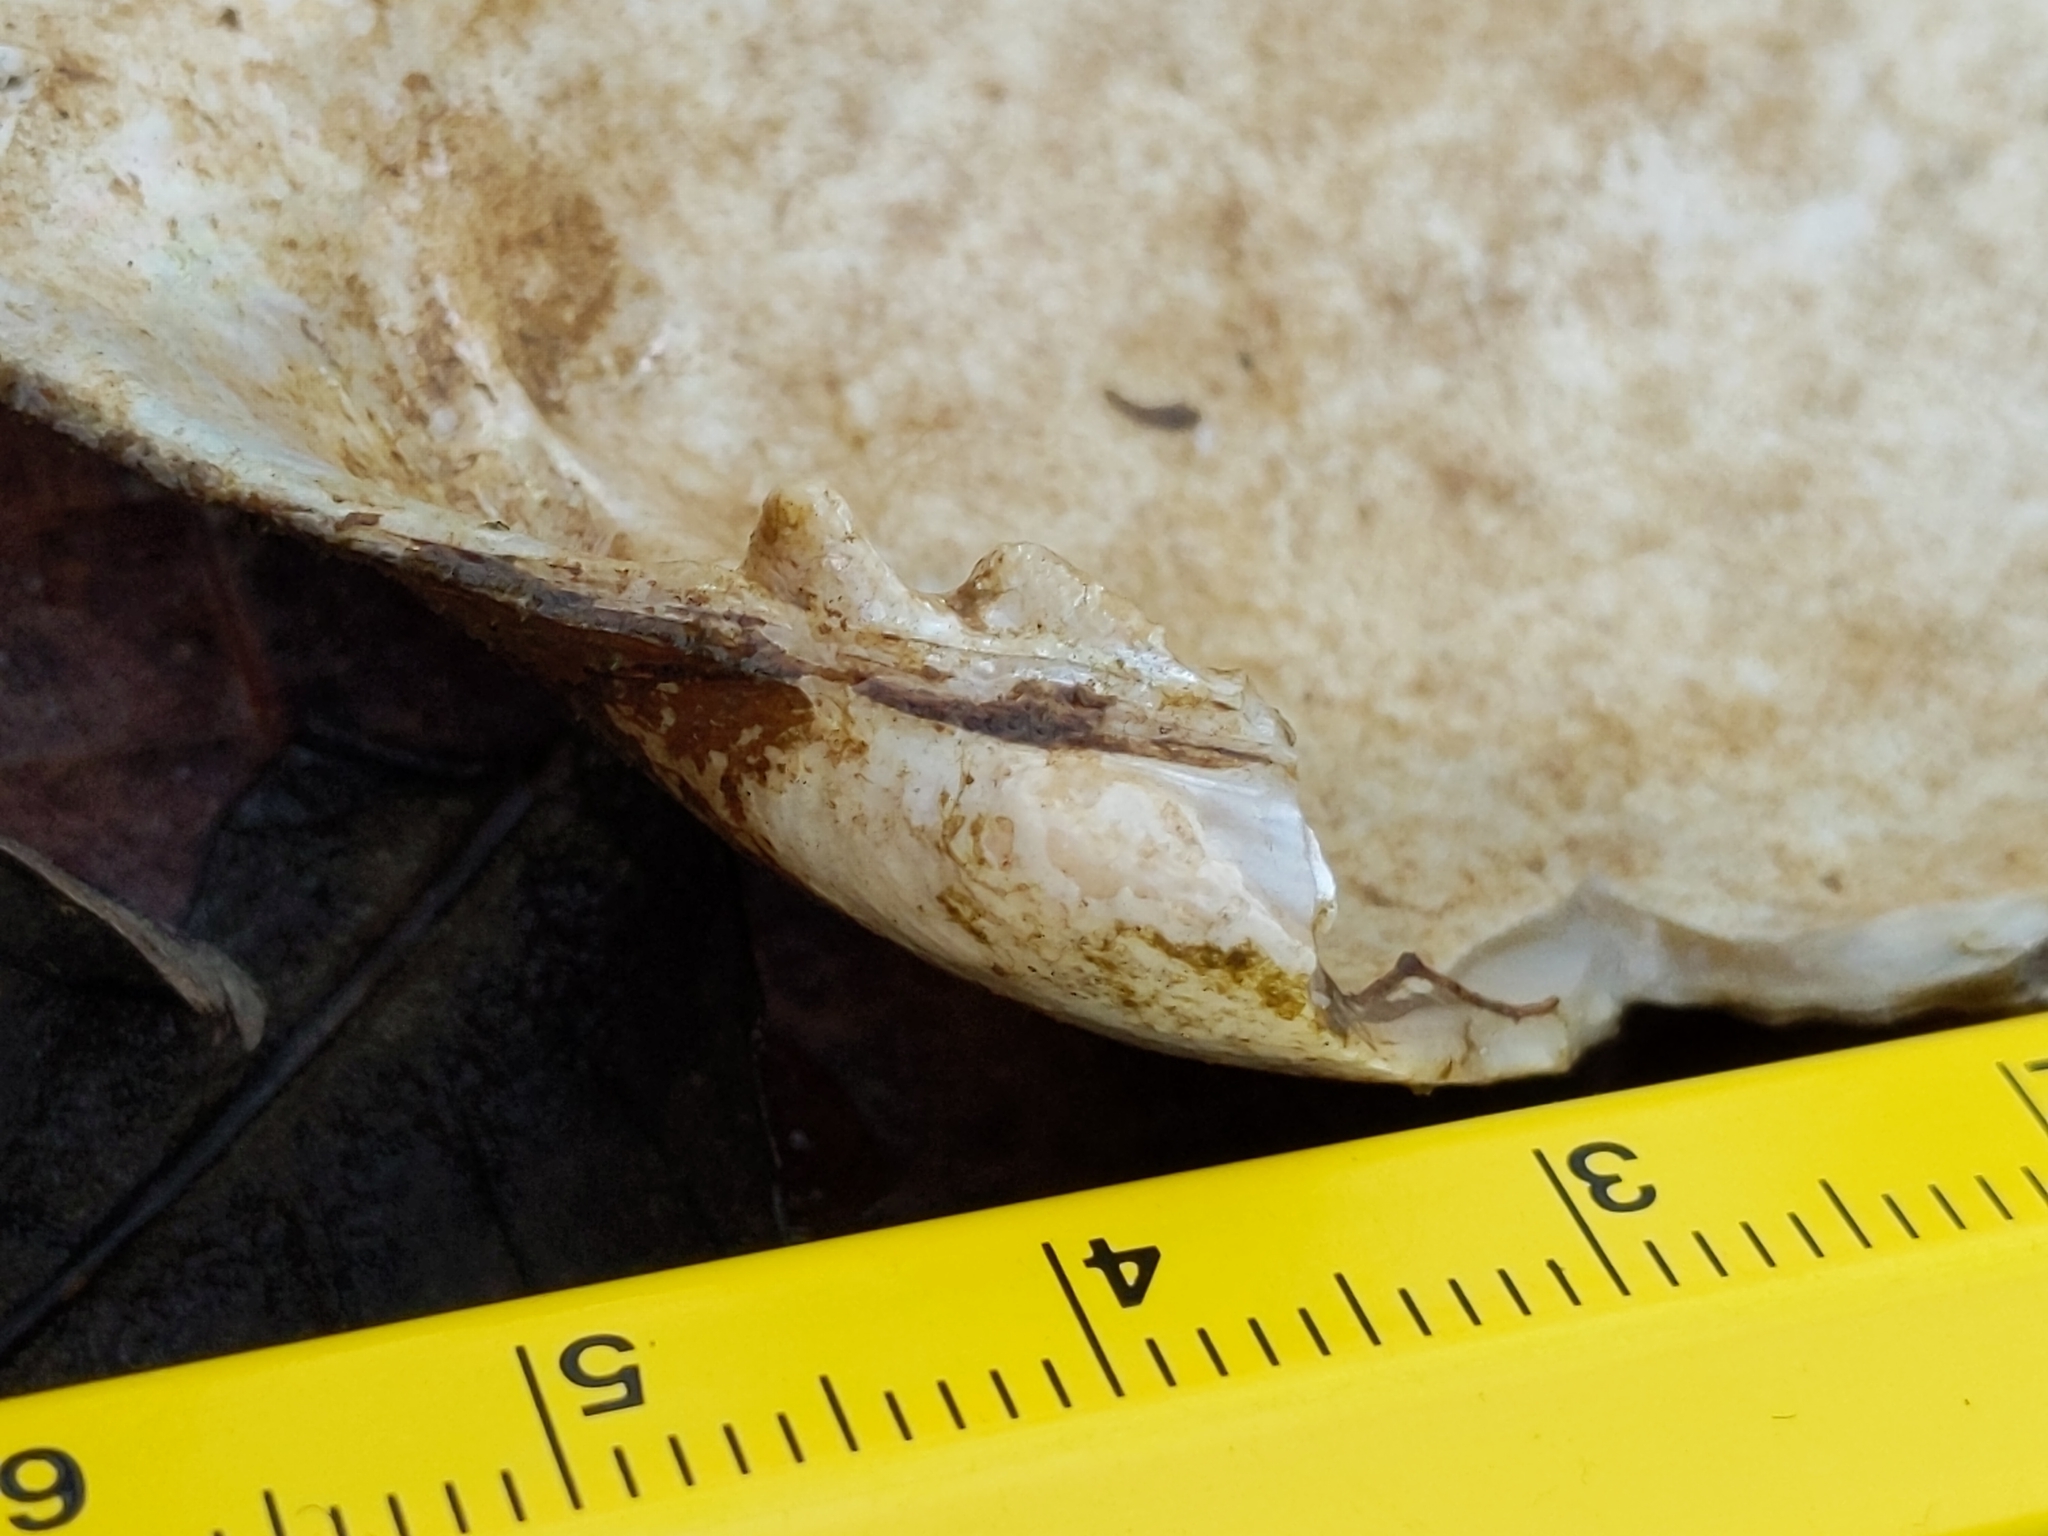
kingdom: Animalia
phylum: Mollusca
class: Bivalvia
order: Unionida
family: Unionidae
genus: Lampsilis
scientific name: Lampsilis siliquoidea
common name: Fatmucket
